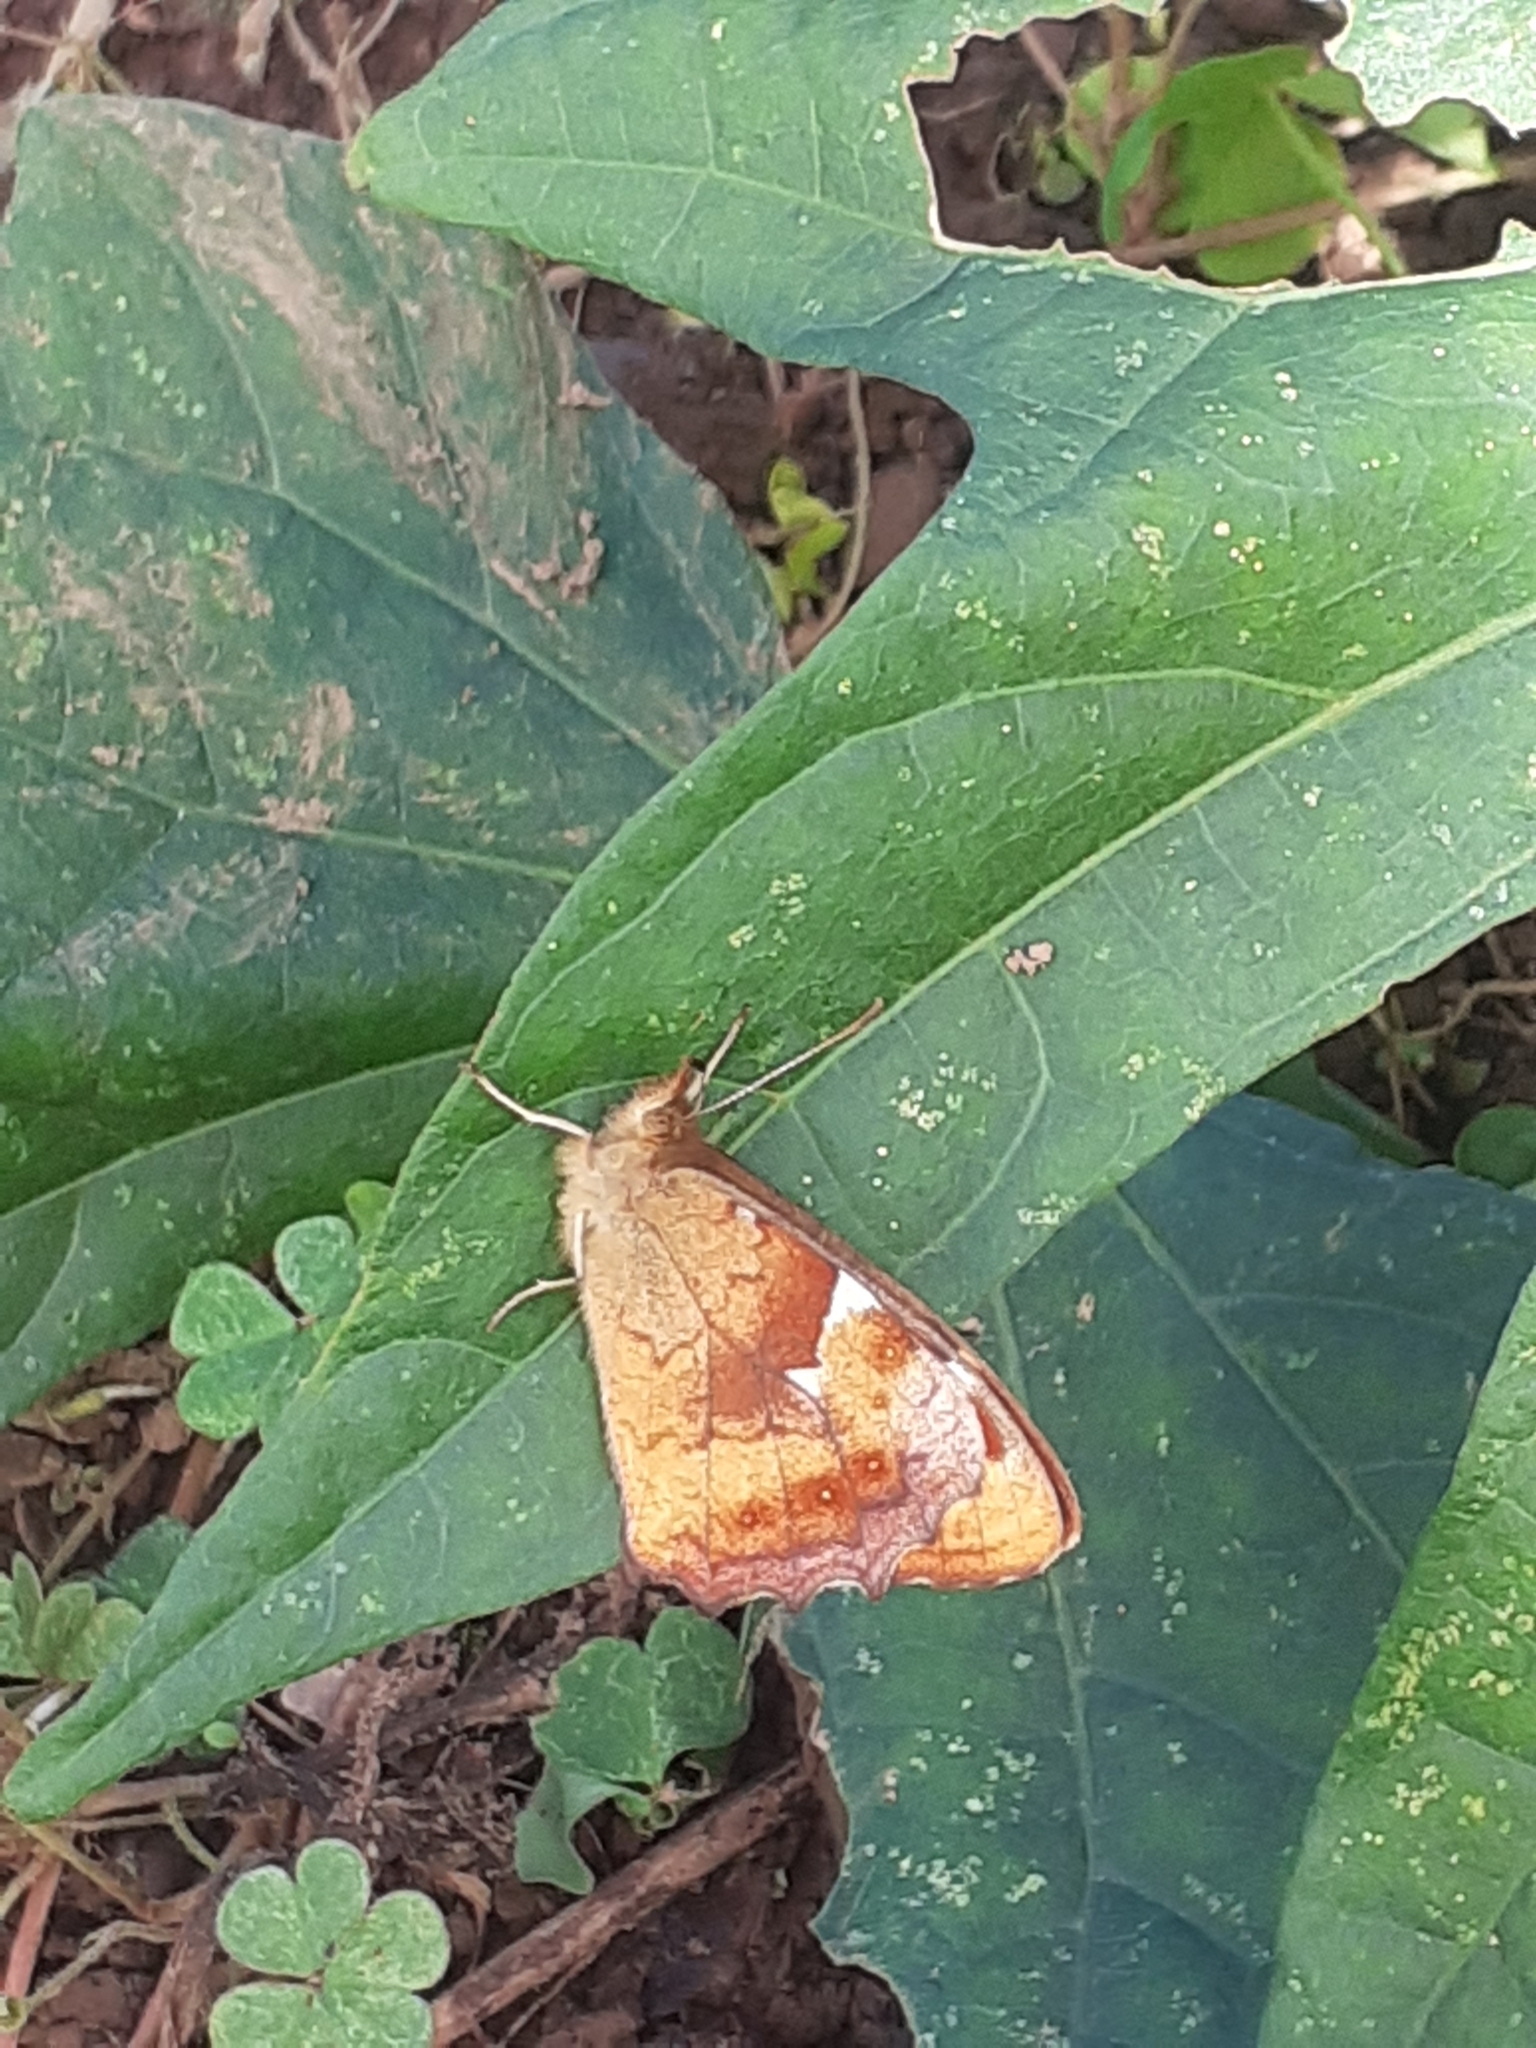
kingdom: Animalia
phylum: Arthropoda
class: Insecta
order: Lepidoptera
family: Nymphalidae
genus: Pararge
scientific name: Pararge aegeria
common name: Speckled wood
